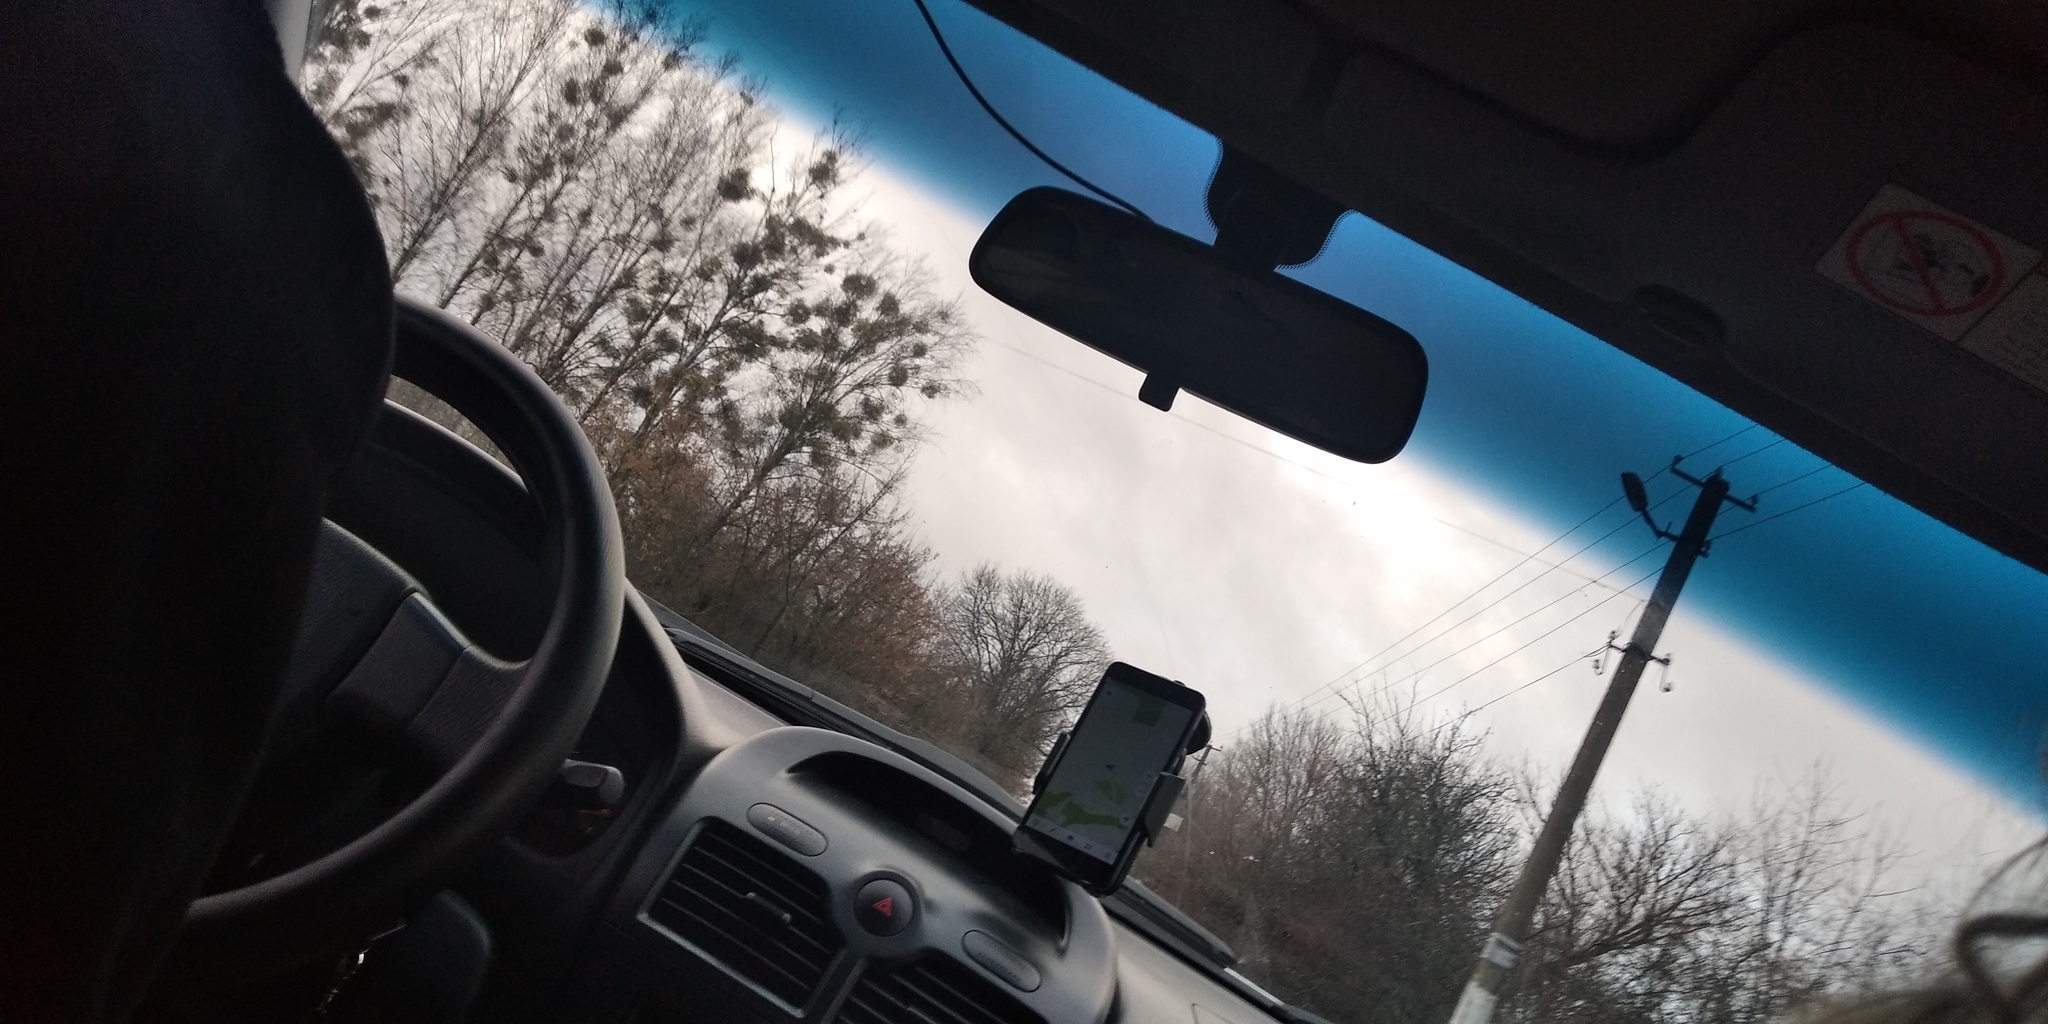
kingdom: Plantae
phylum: Tracheophyta
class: Magnoliopsida
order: Santalales
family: Viscaceae
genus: Viscum
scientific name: Viscum album
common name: Mistletoe
